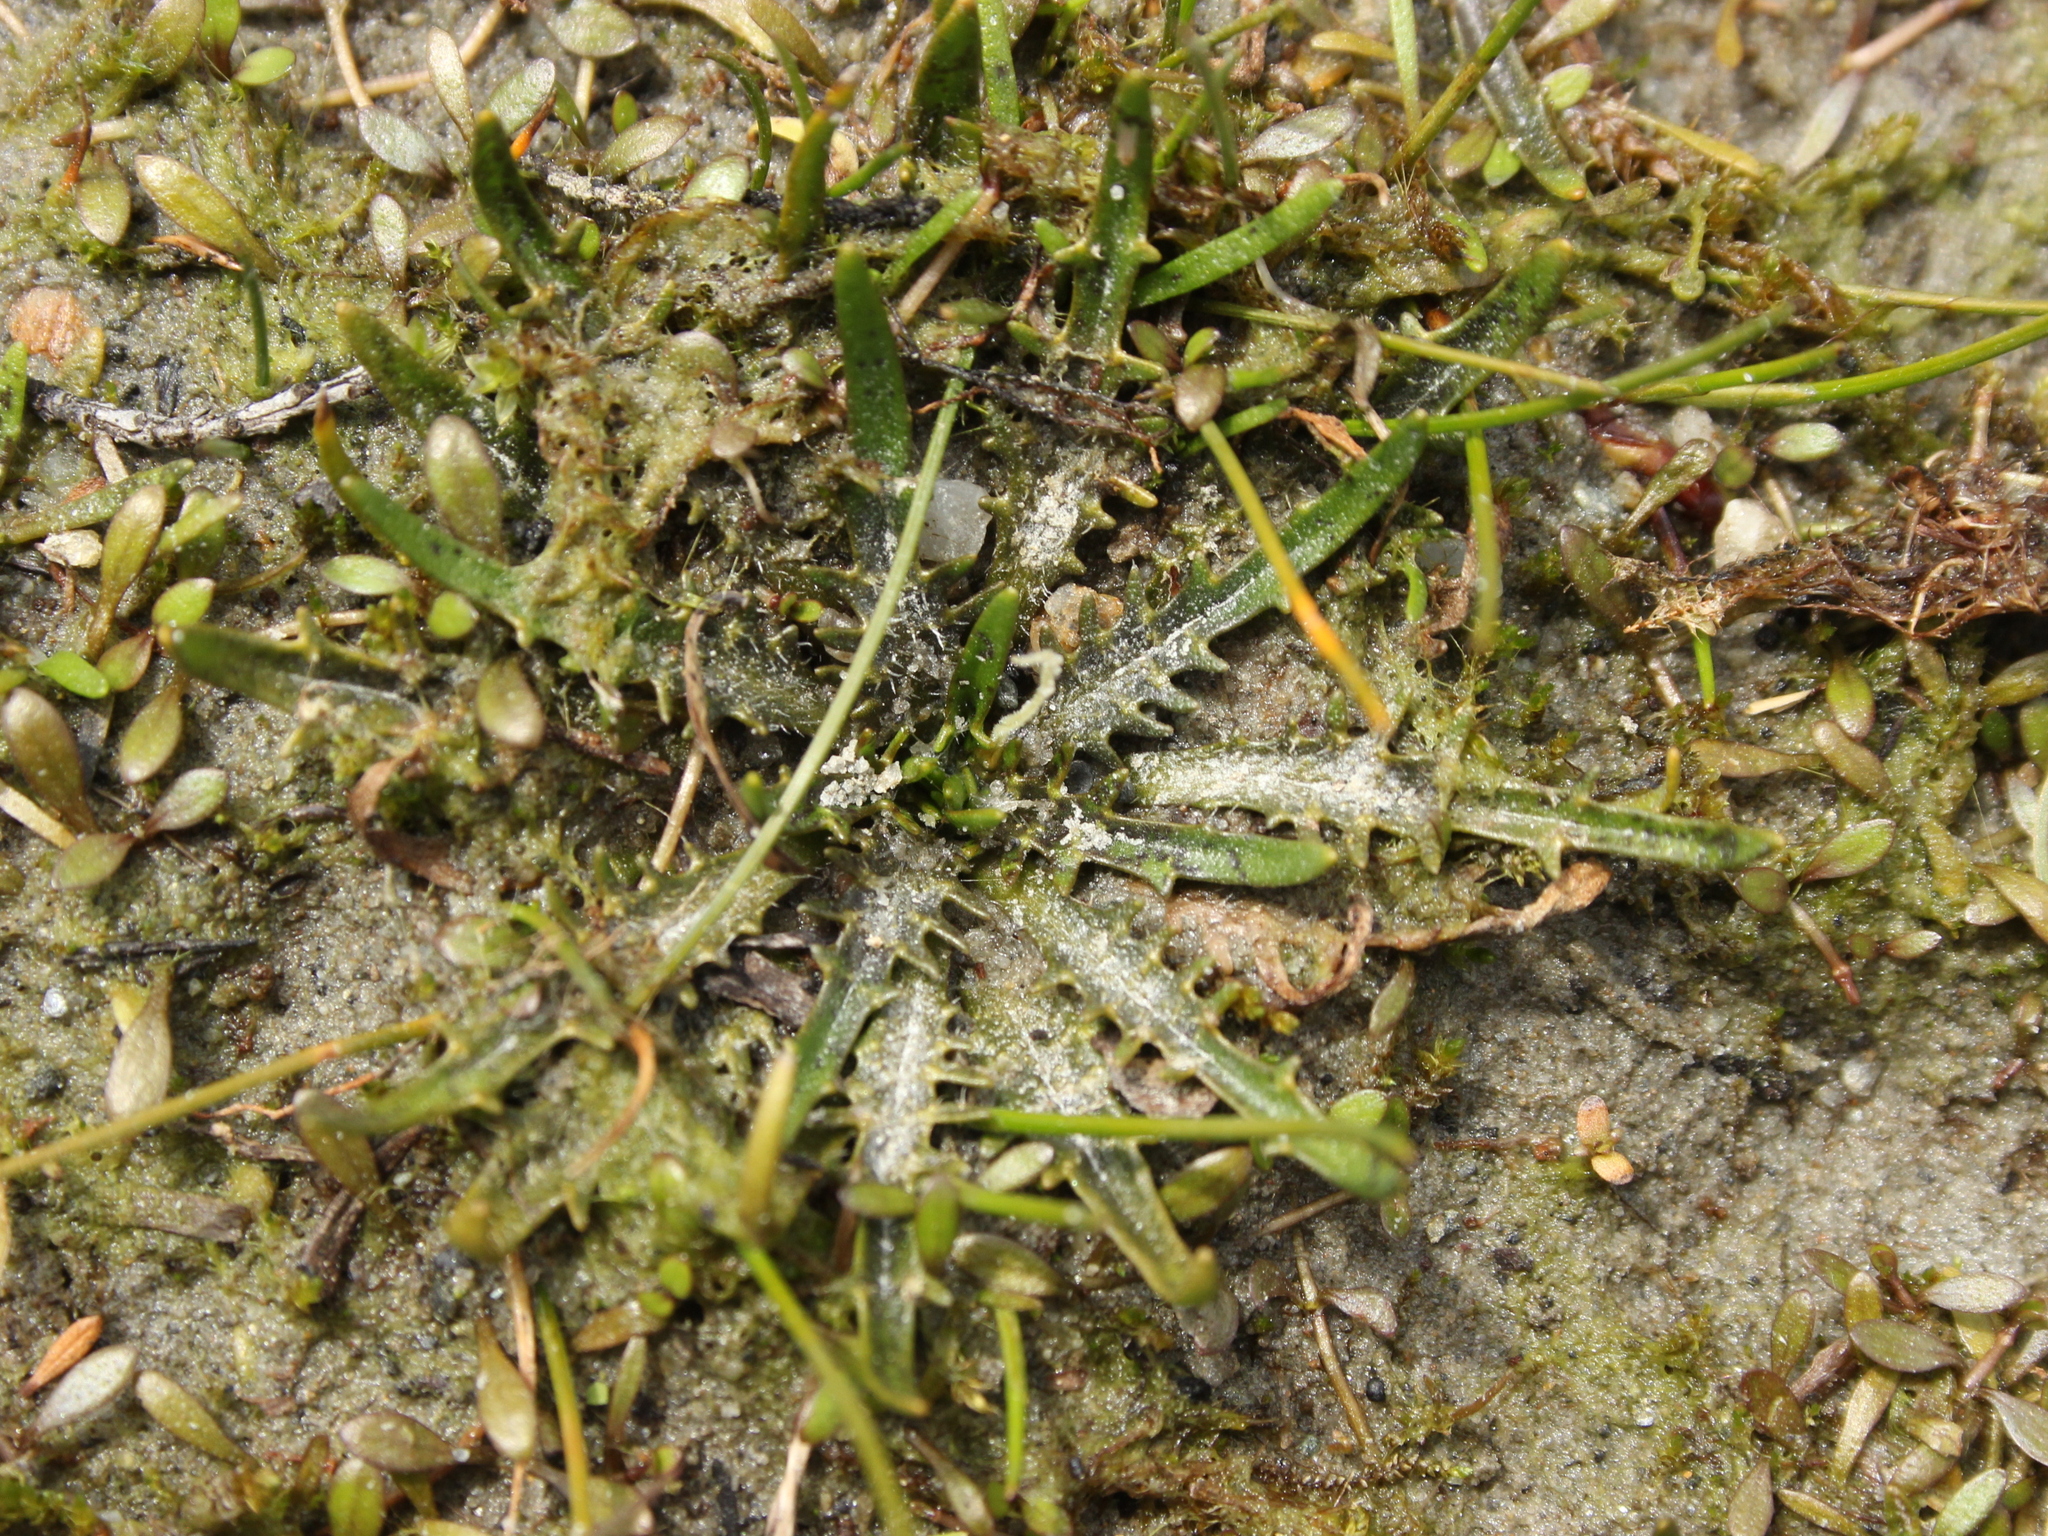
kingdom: Plantae
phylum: Tracheophyta
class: Magnoliopsida
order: Lamiales
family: Plantaginaceae
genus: Plantago
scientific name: Plantago triandra
